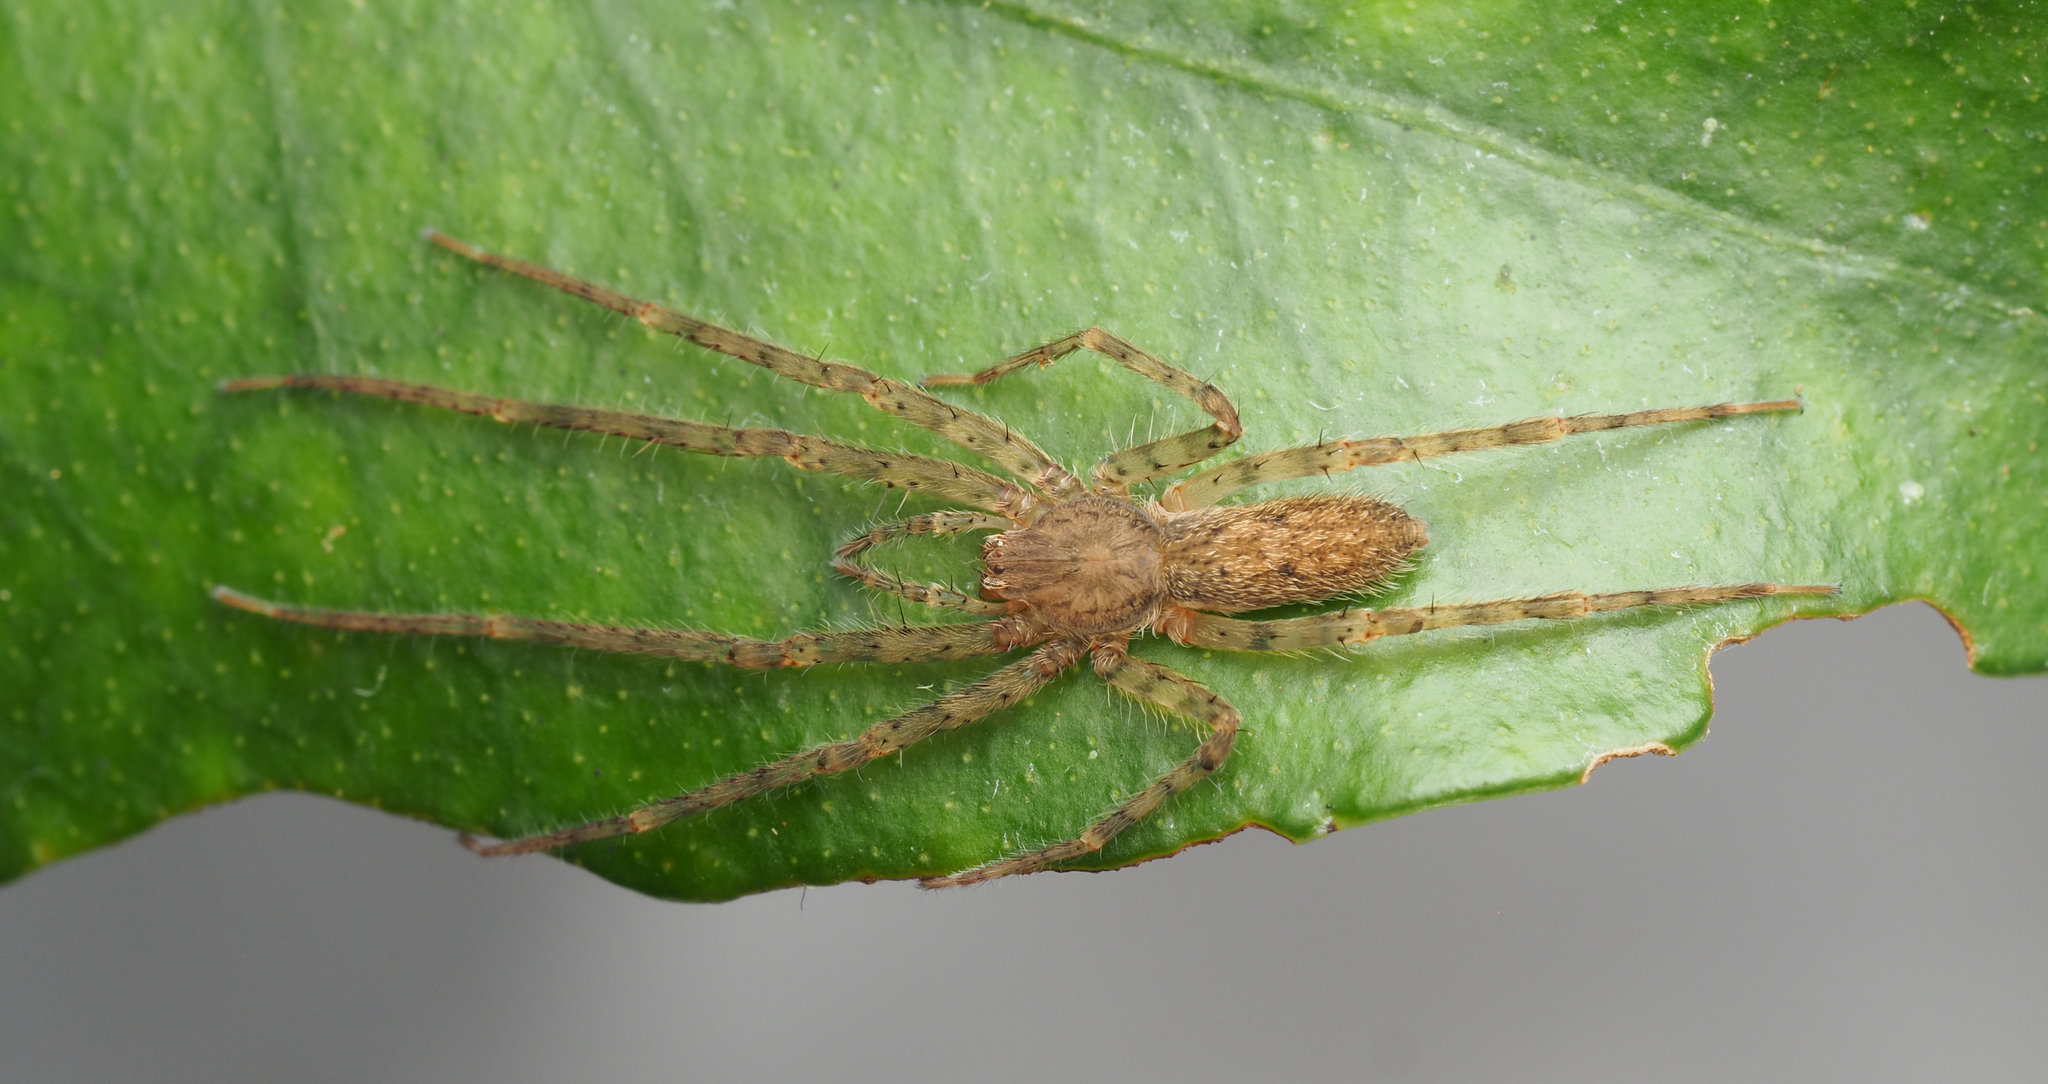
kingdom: Animalia
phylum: Arthropoda
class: Arachnida
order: Araneae
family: Desidae
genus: Manjala
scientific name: Manjala plana
